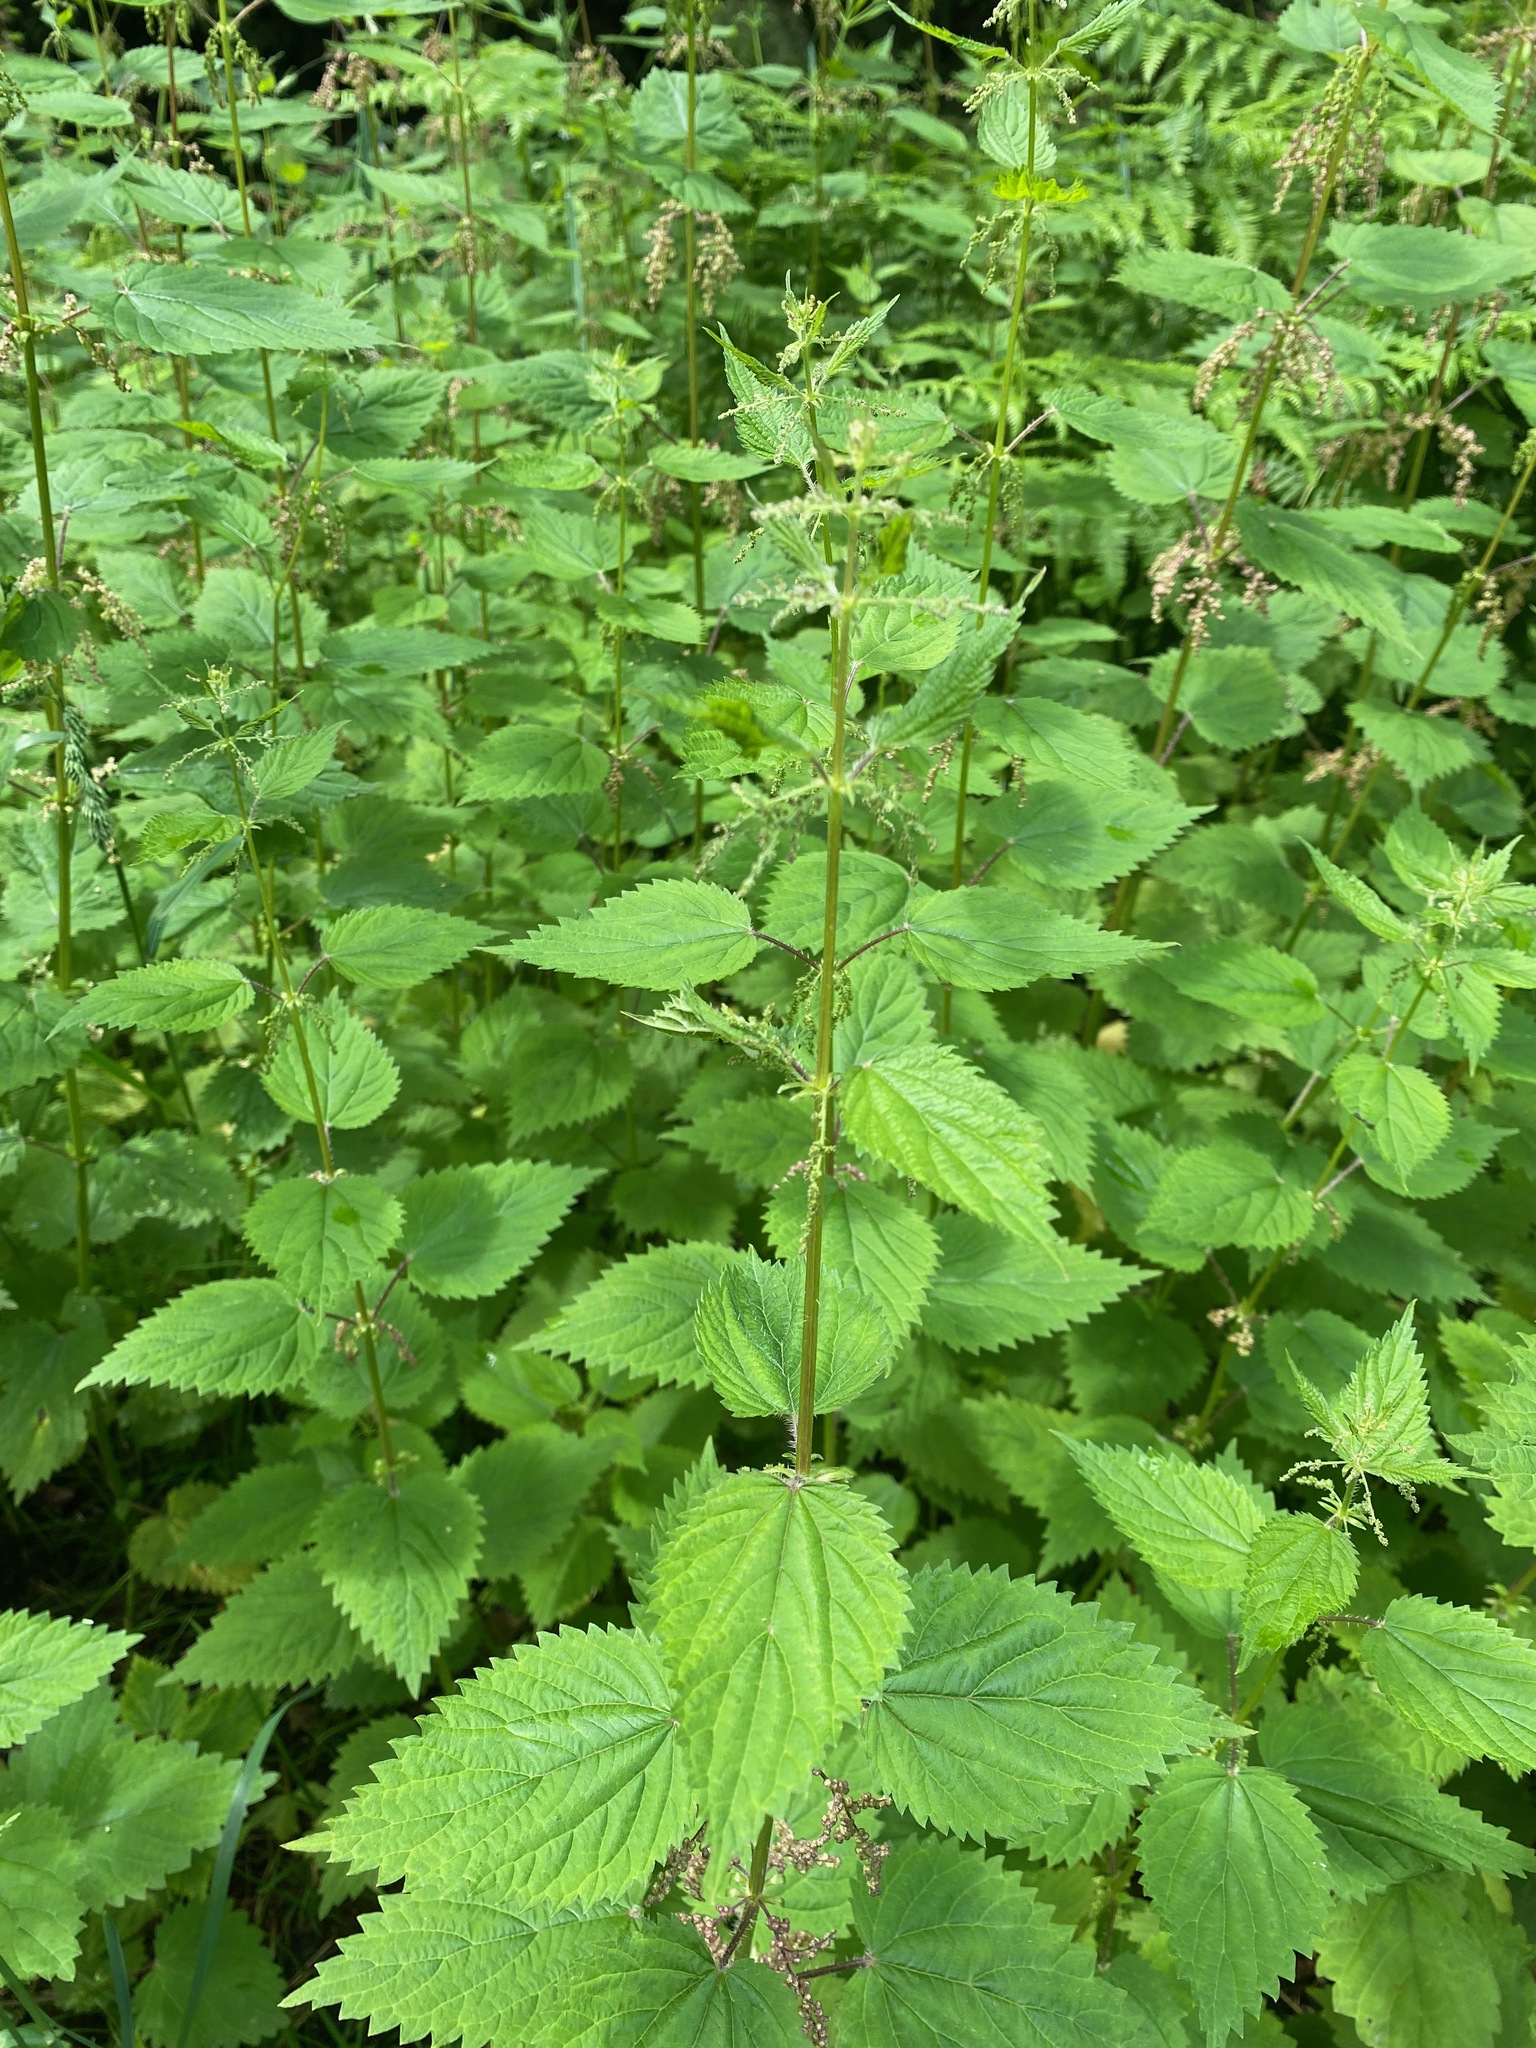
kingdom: Plantae
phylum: Tracheophyta
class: Magnoliopsida
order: Rosales
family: Urticaceae
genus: Urtica
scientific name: Urtica dioica
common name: Common nettle
